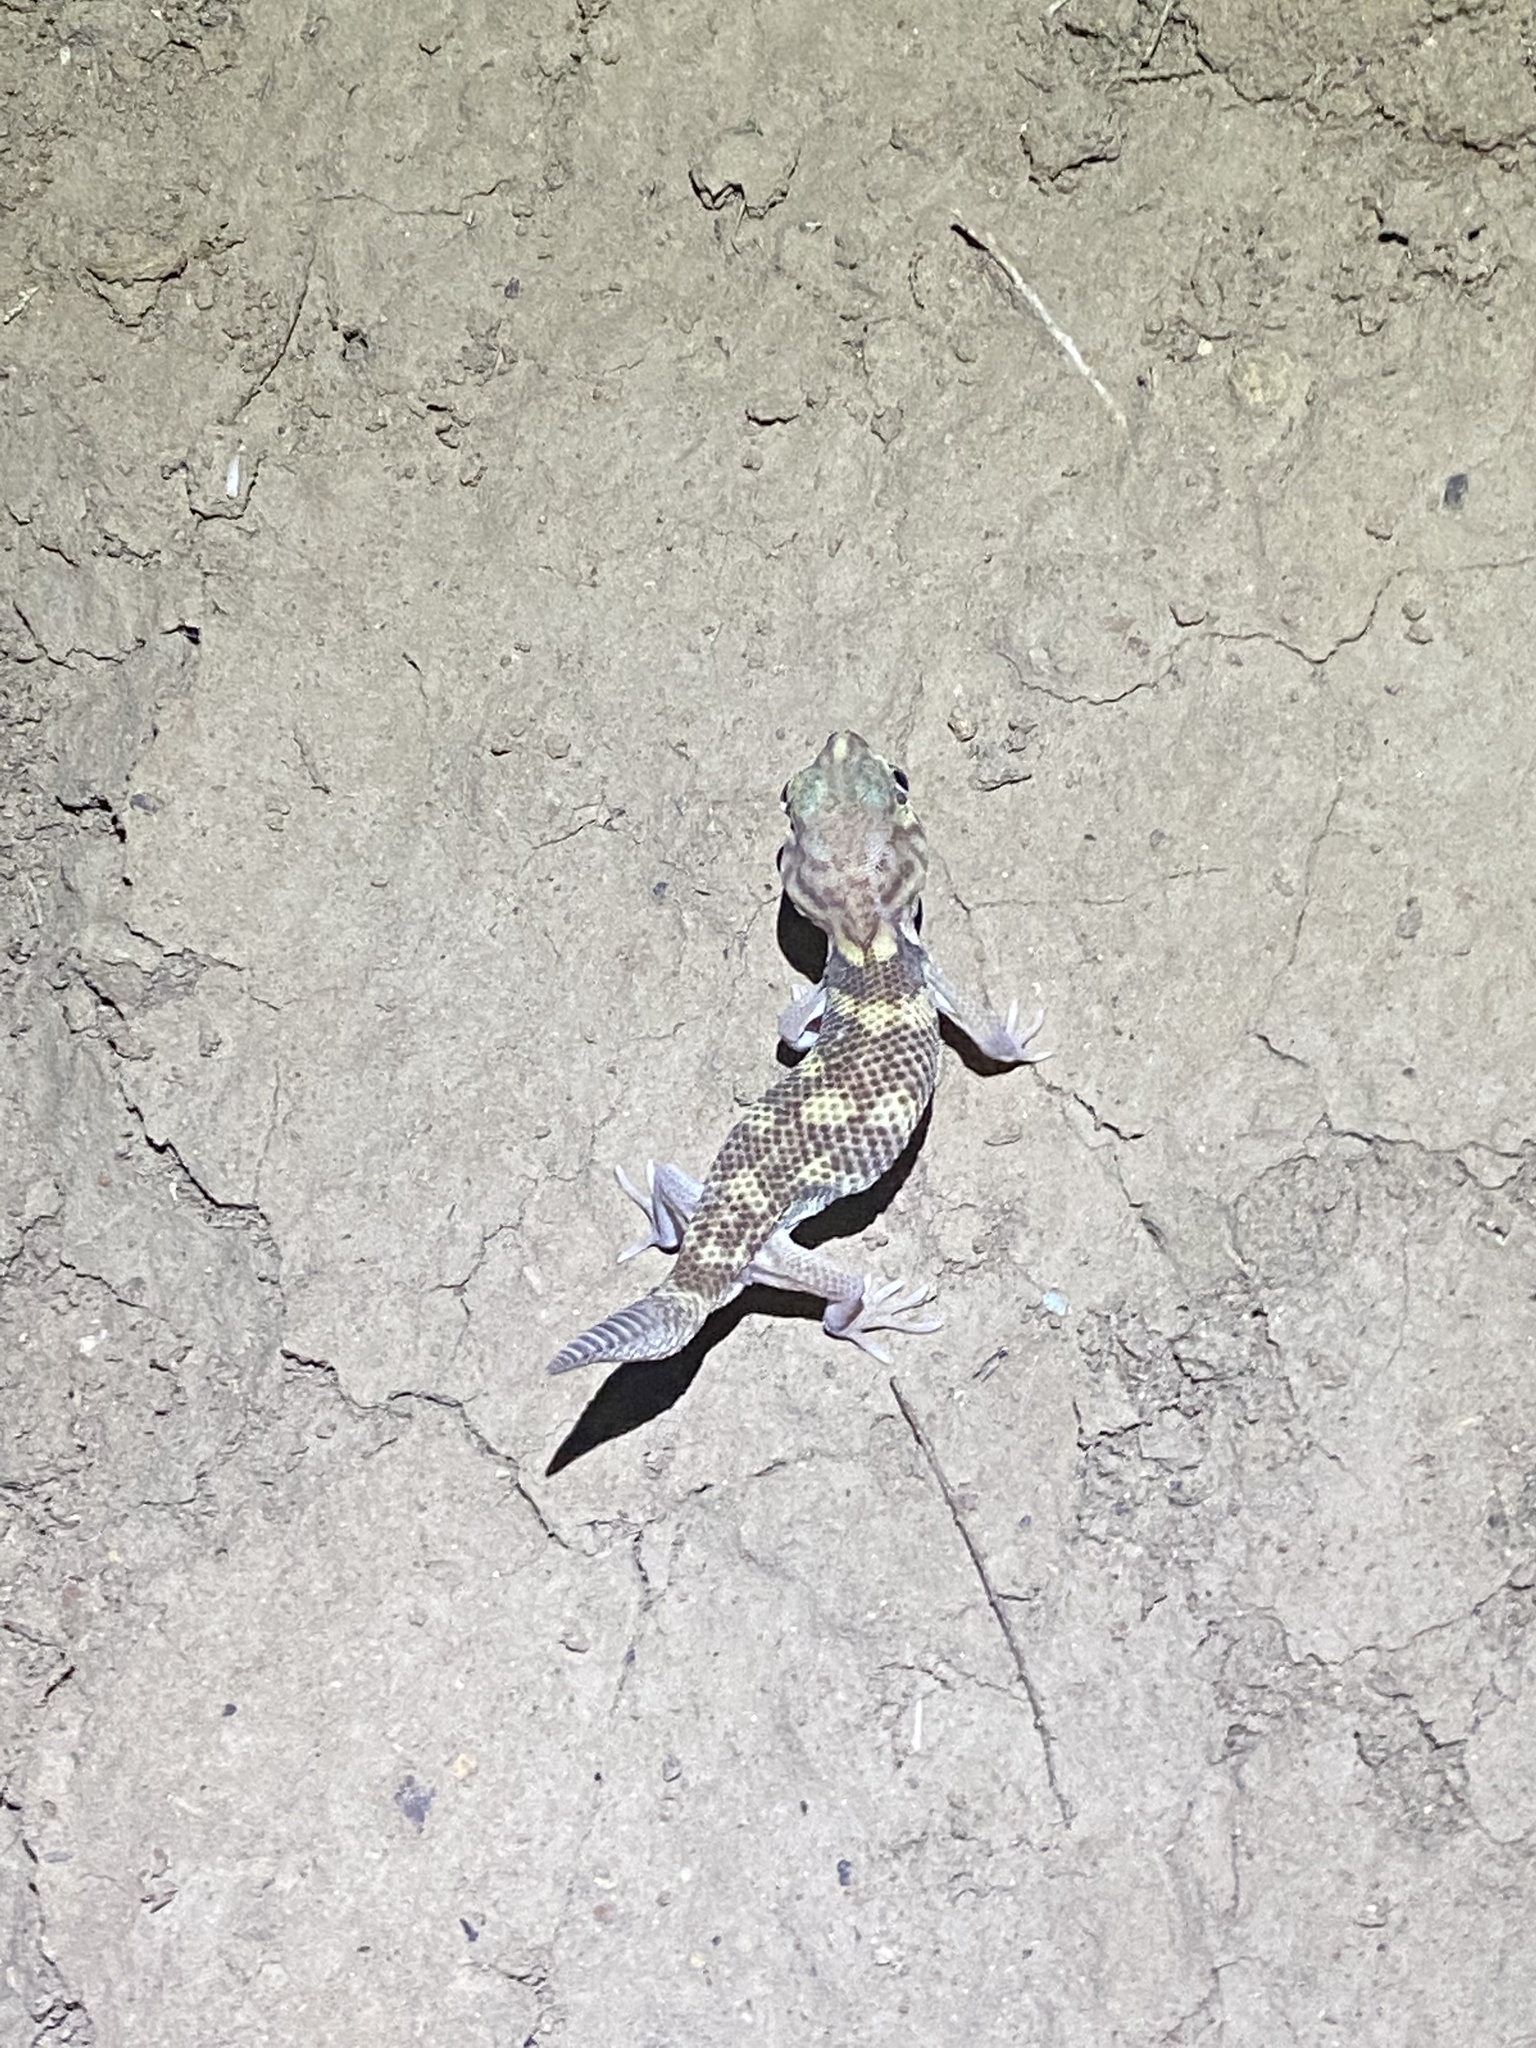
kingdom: Animalia
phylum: Chordata
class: Squamata
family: Sphaerodactylidae
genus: Teratoscincus
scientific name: Teratoscincus bedriagai
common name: Bedriaga's plate-tailed gecko
